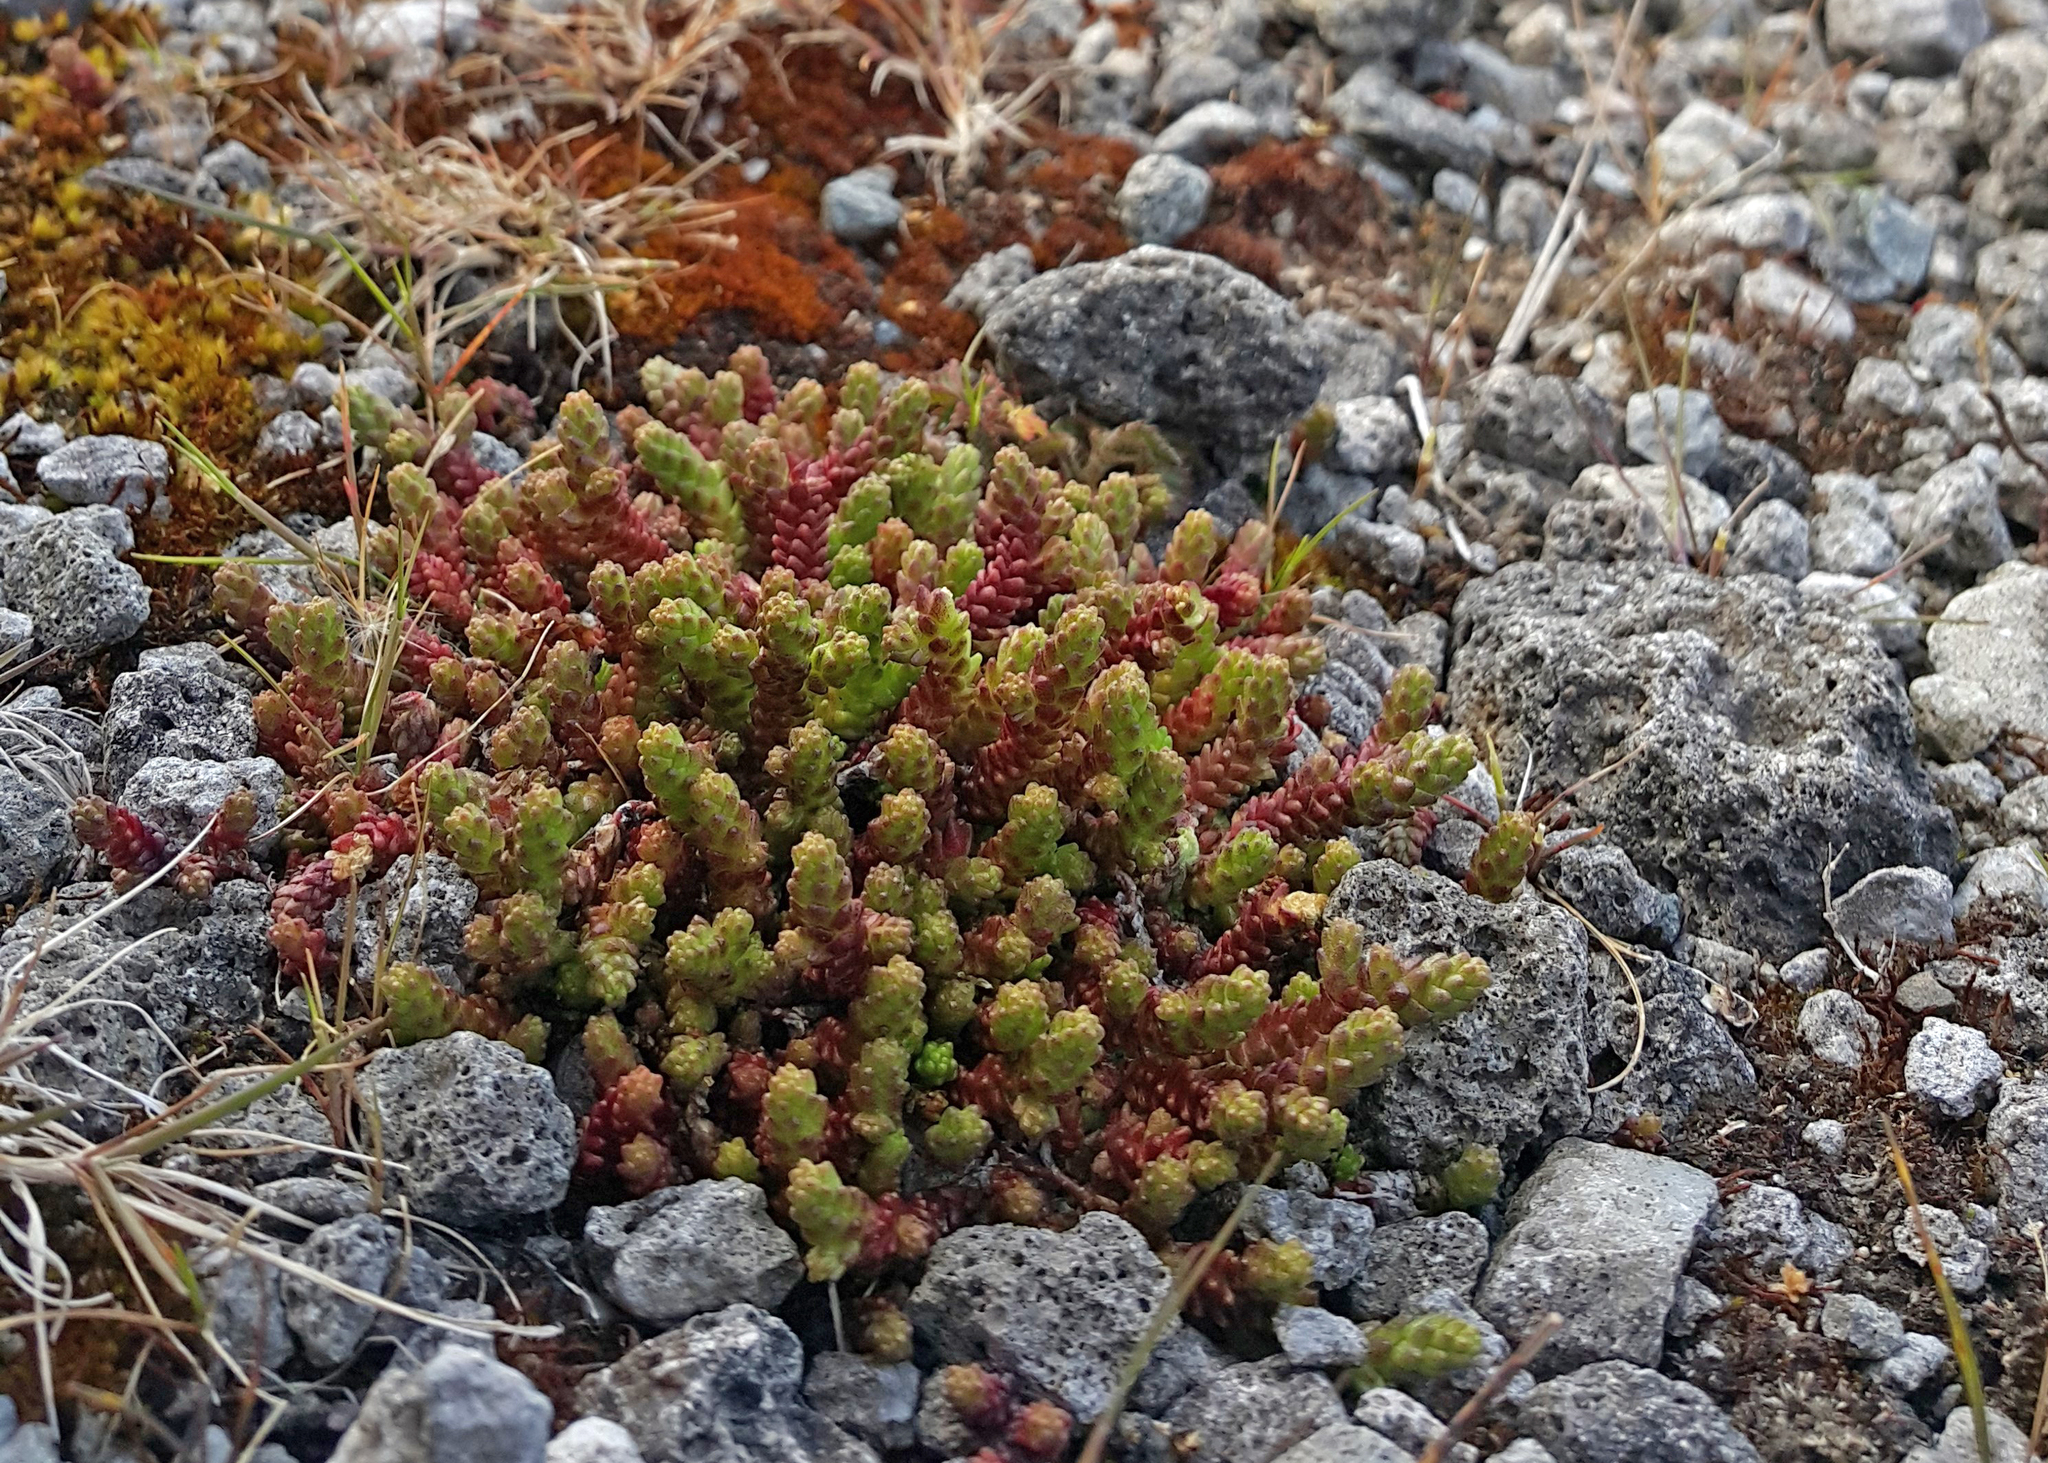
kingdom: Plantae
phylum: Tracheophyta
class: Magnoliopsida
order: Saxifragales
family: Crassulaceae
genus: Sedum
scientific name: Sedum acre
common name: Biting stonecrop
